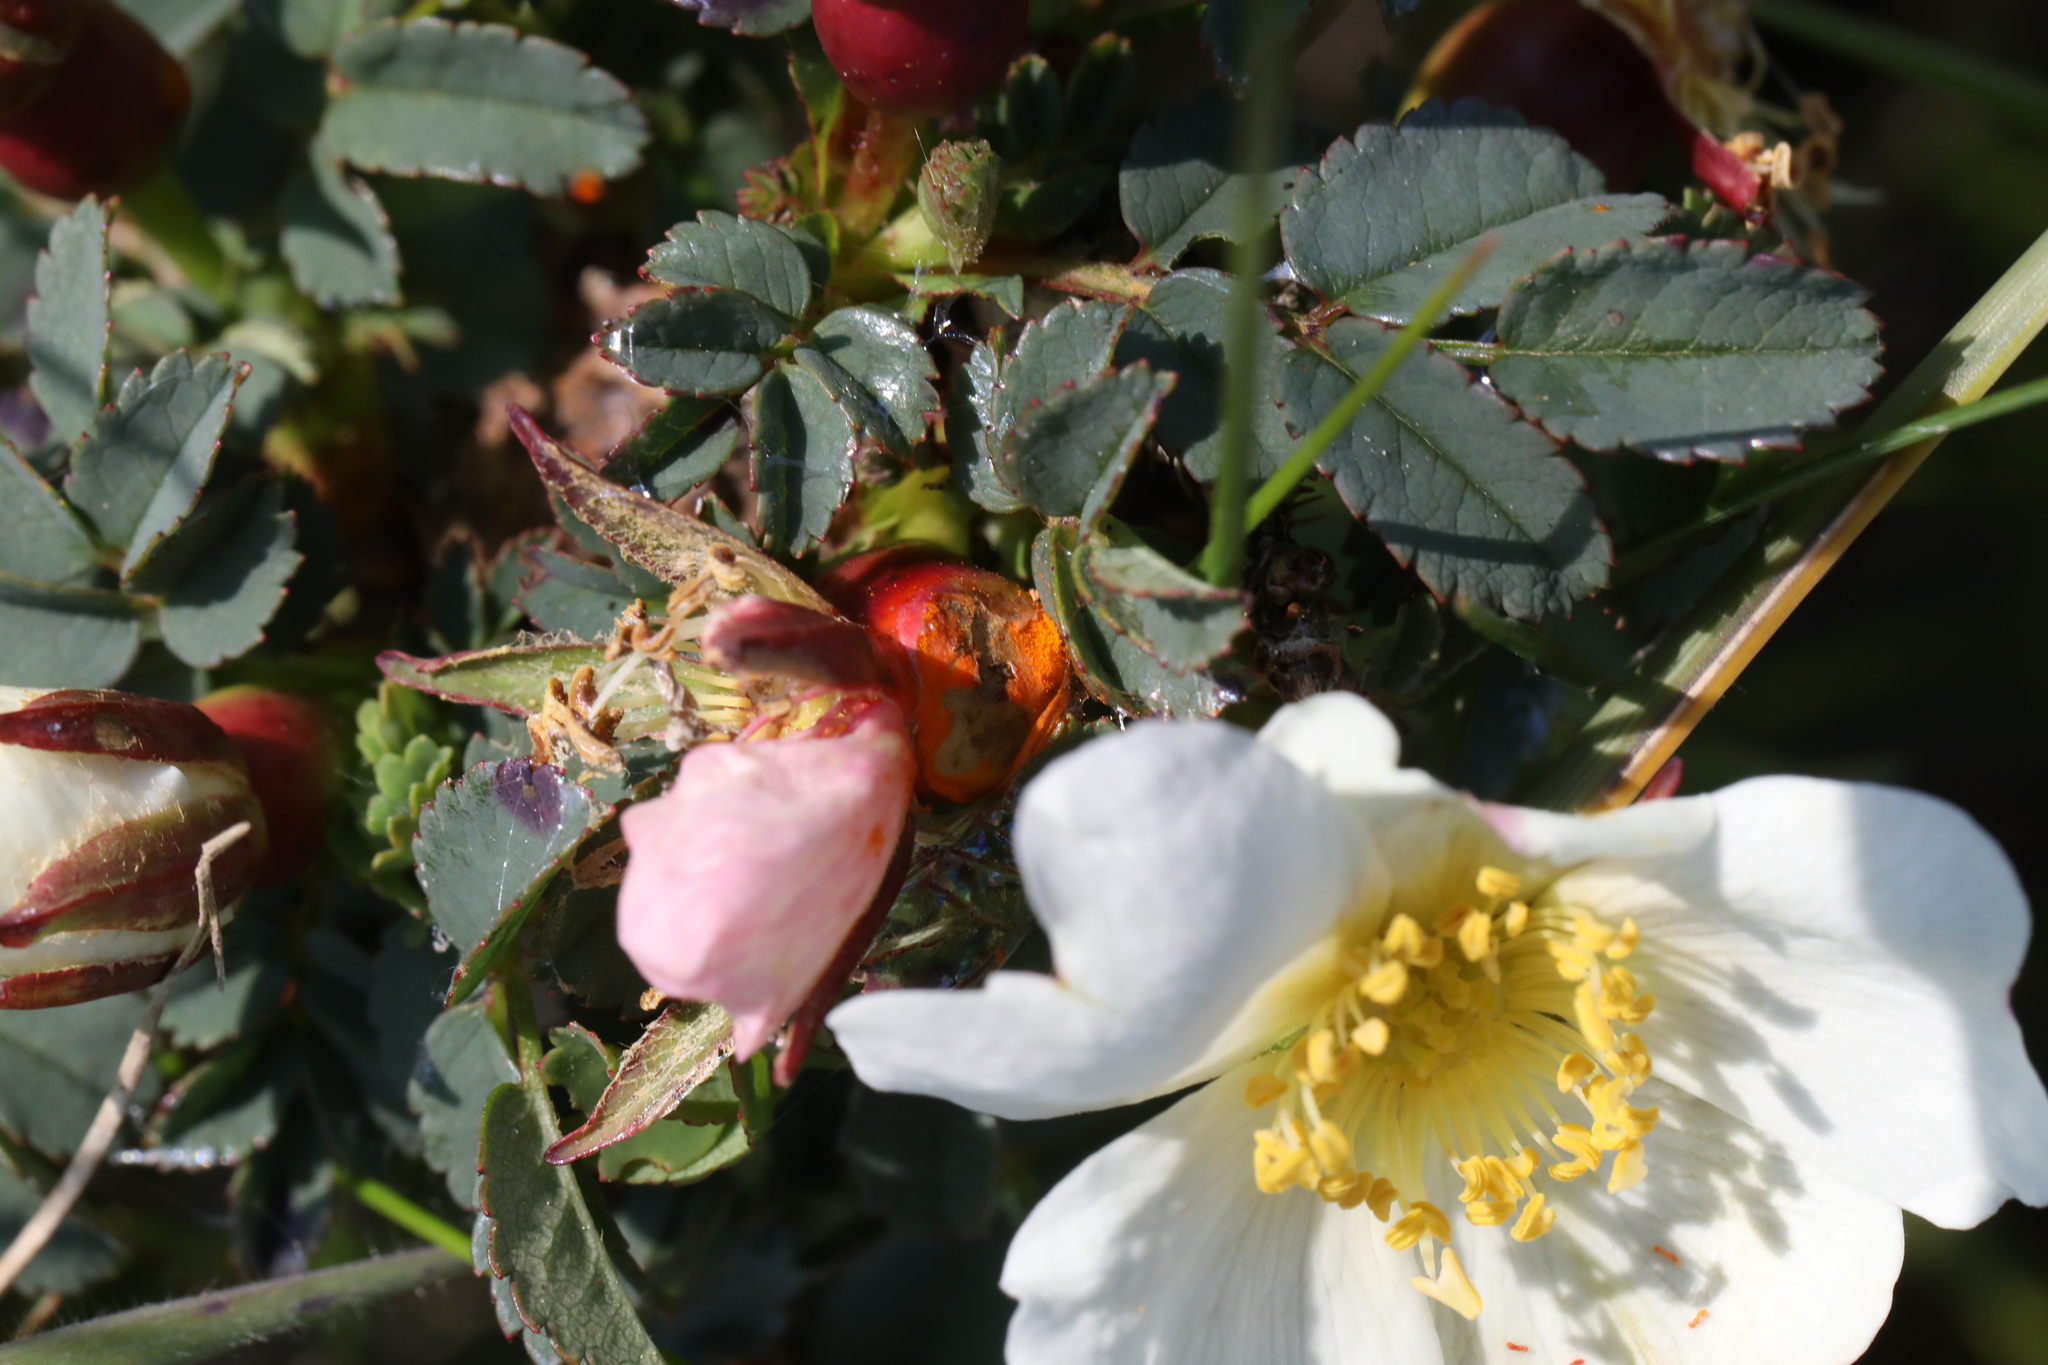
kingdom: Fungi
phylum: Basidiomycota
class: Pucciniomycetes
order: Pucciniales
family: Phragmidiaceae
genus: Phragmidium
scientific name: Phragmidium
